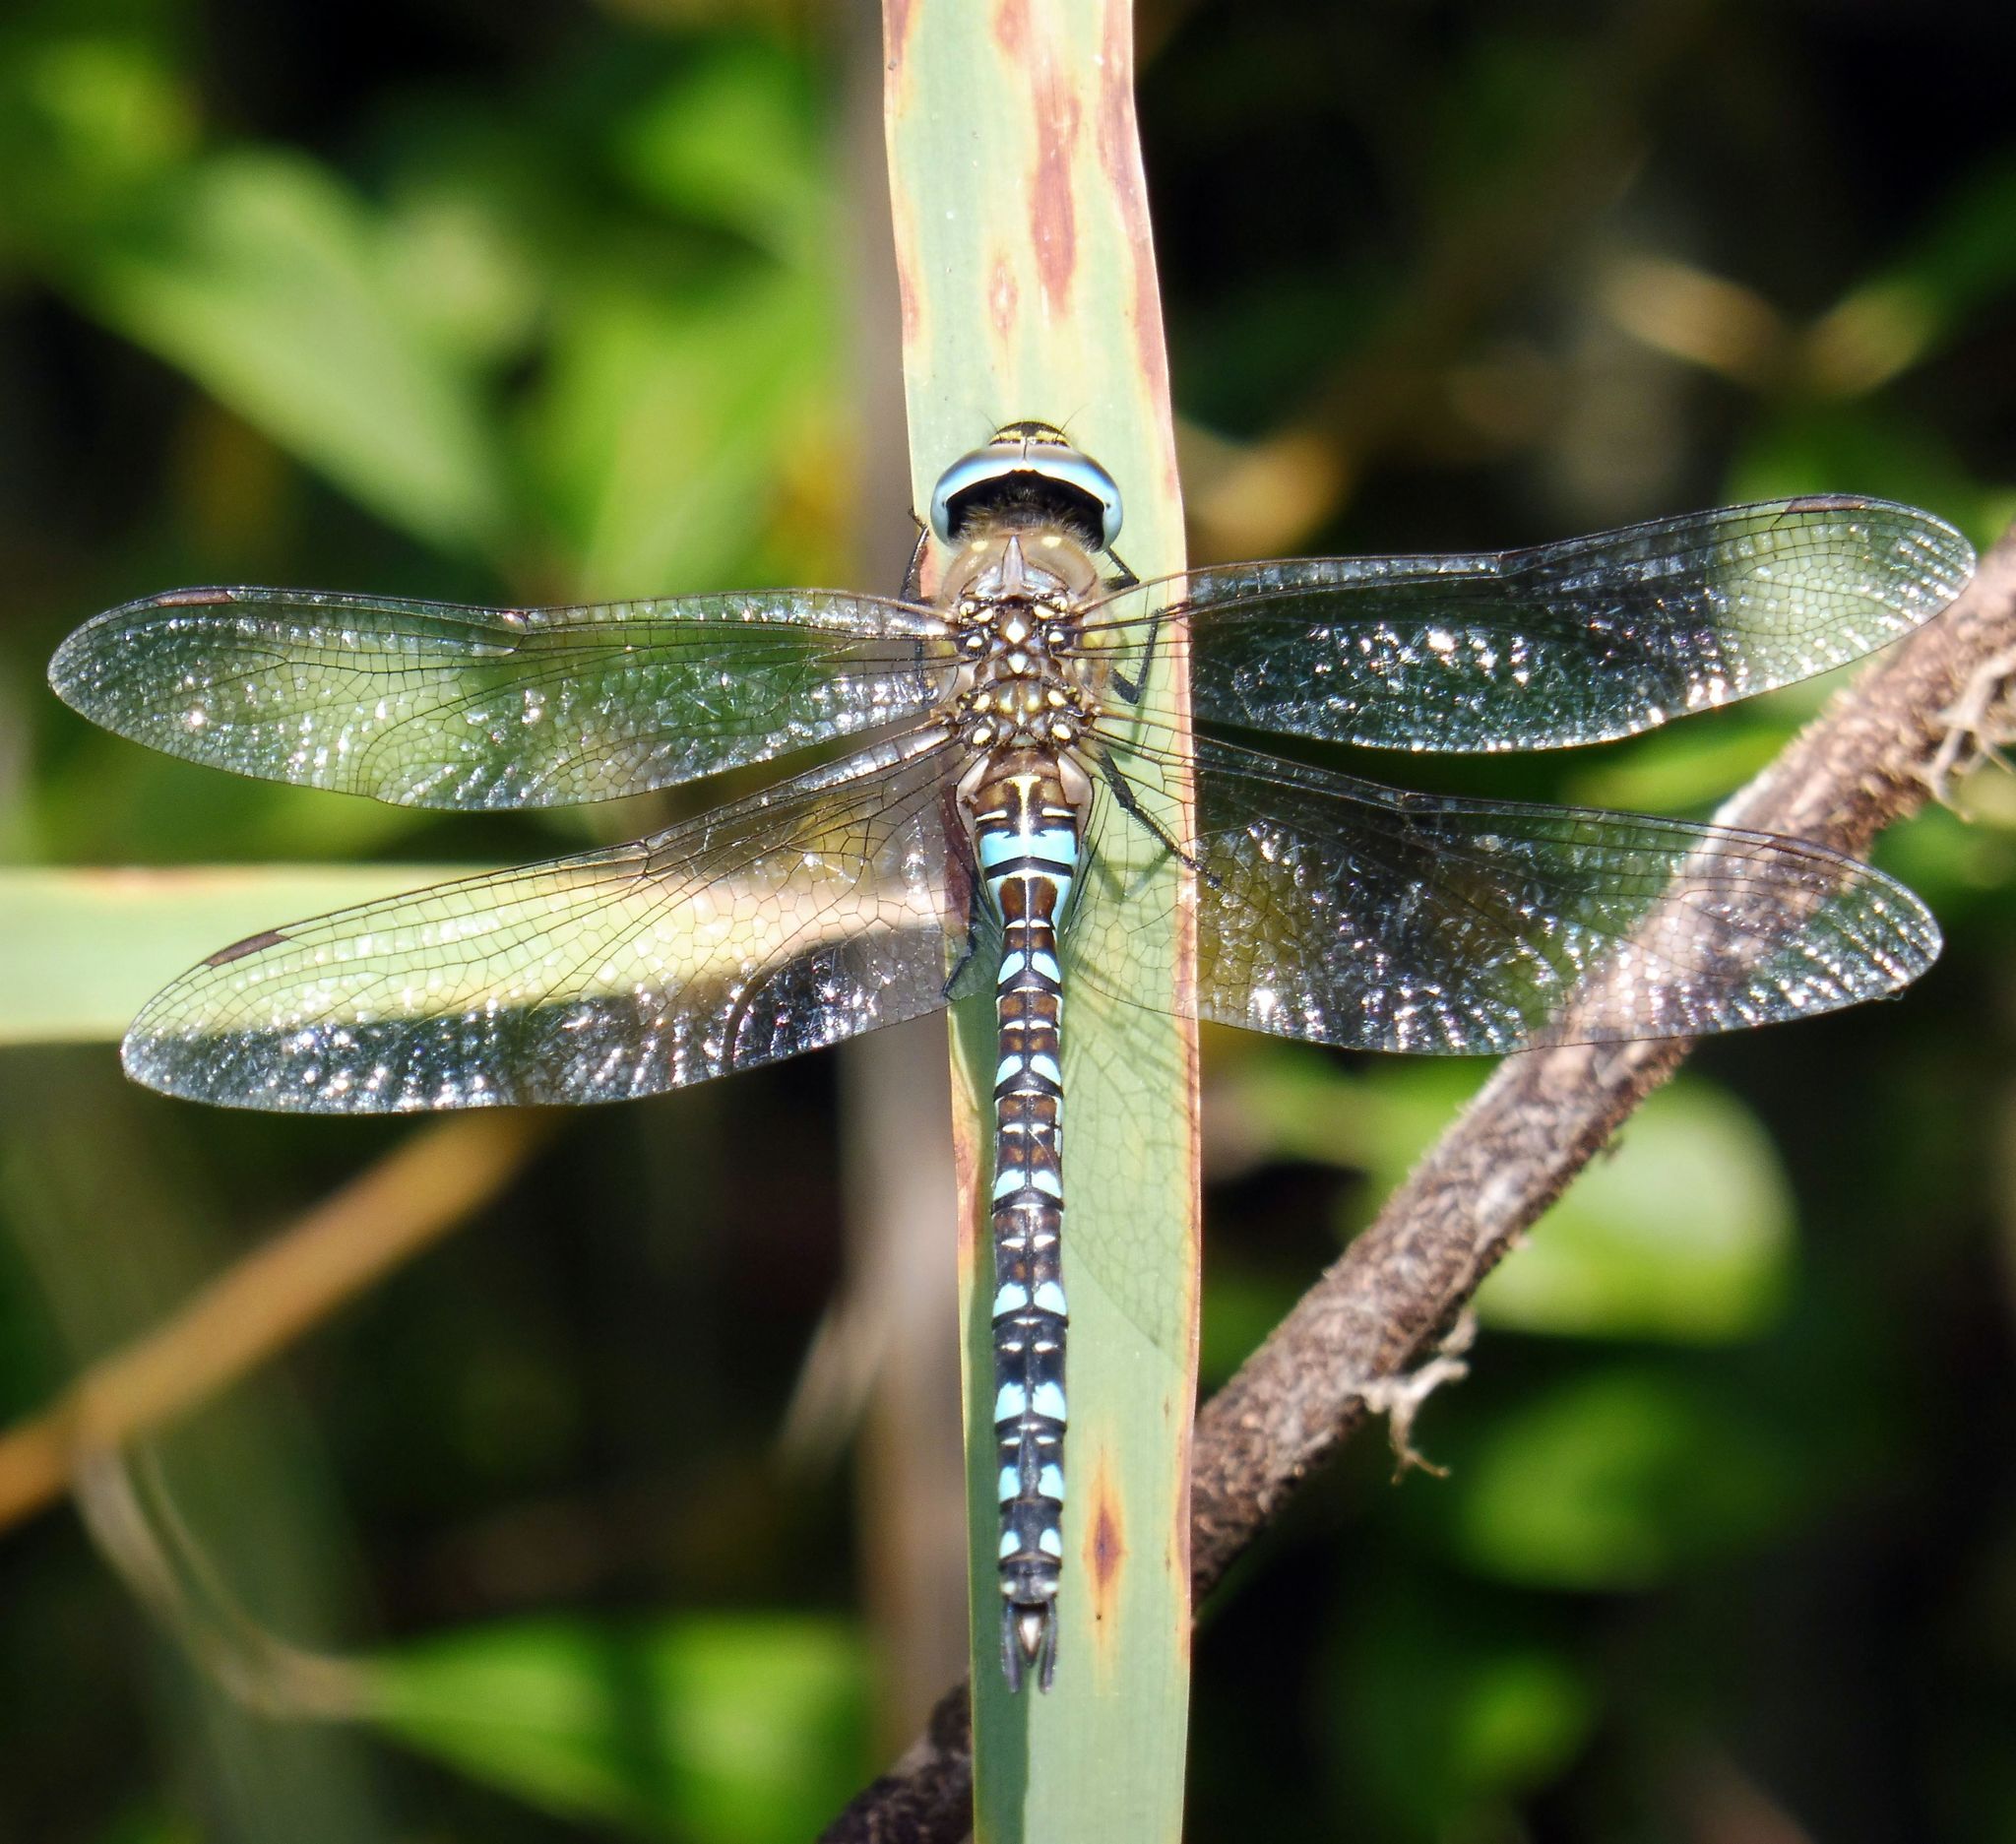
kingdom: Animalia
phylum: Arthropoda
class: Insecta
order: Odonata
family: Aeshnidae
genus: Aeshna
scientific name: Aeshna mixta
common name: Migrant hawker
